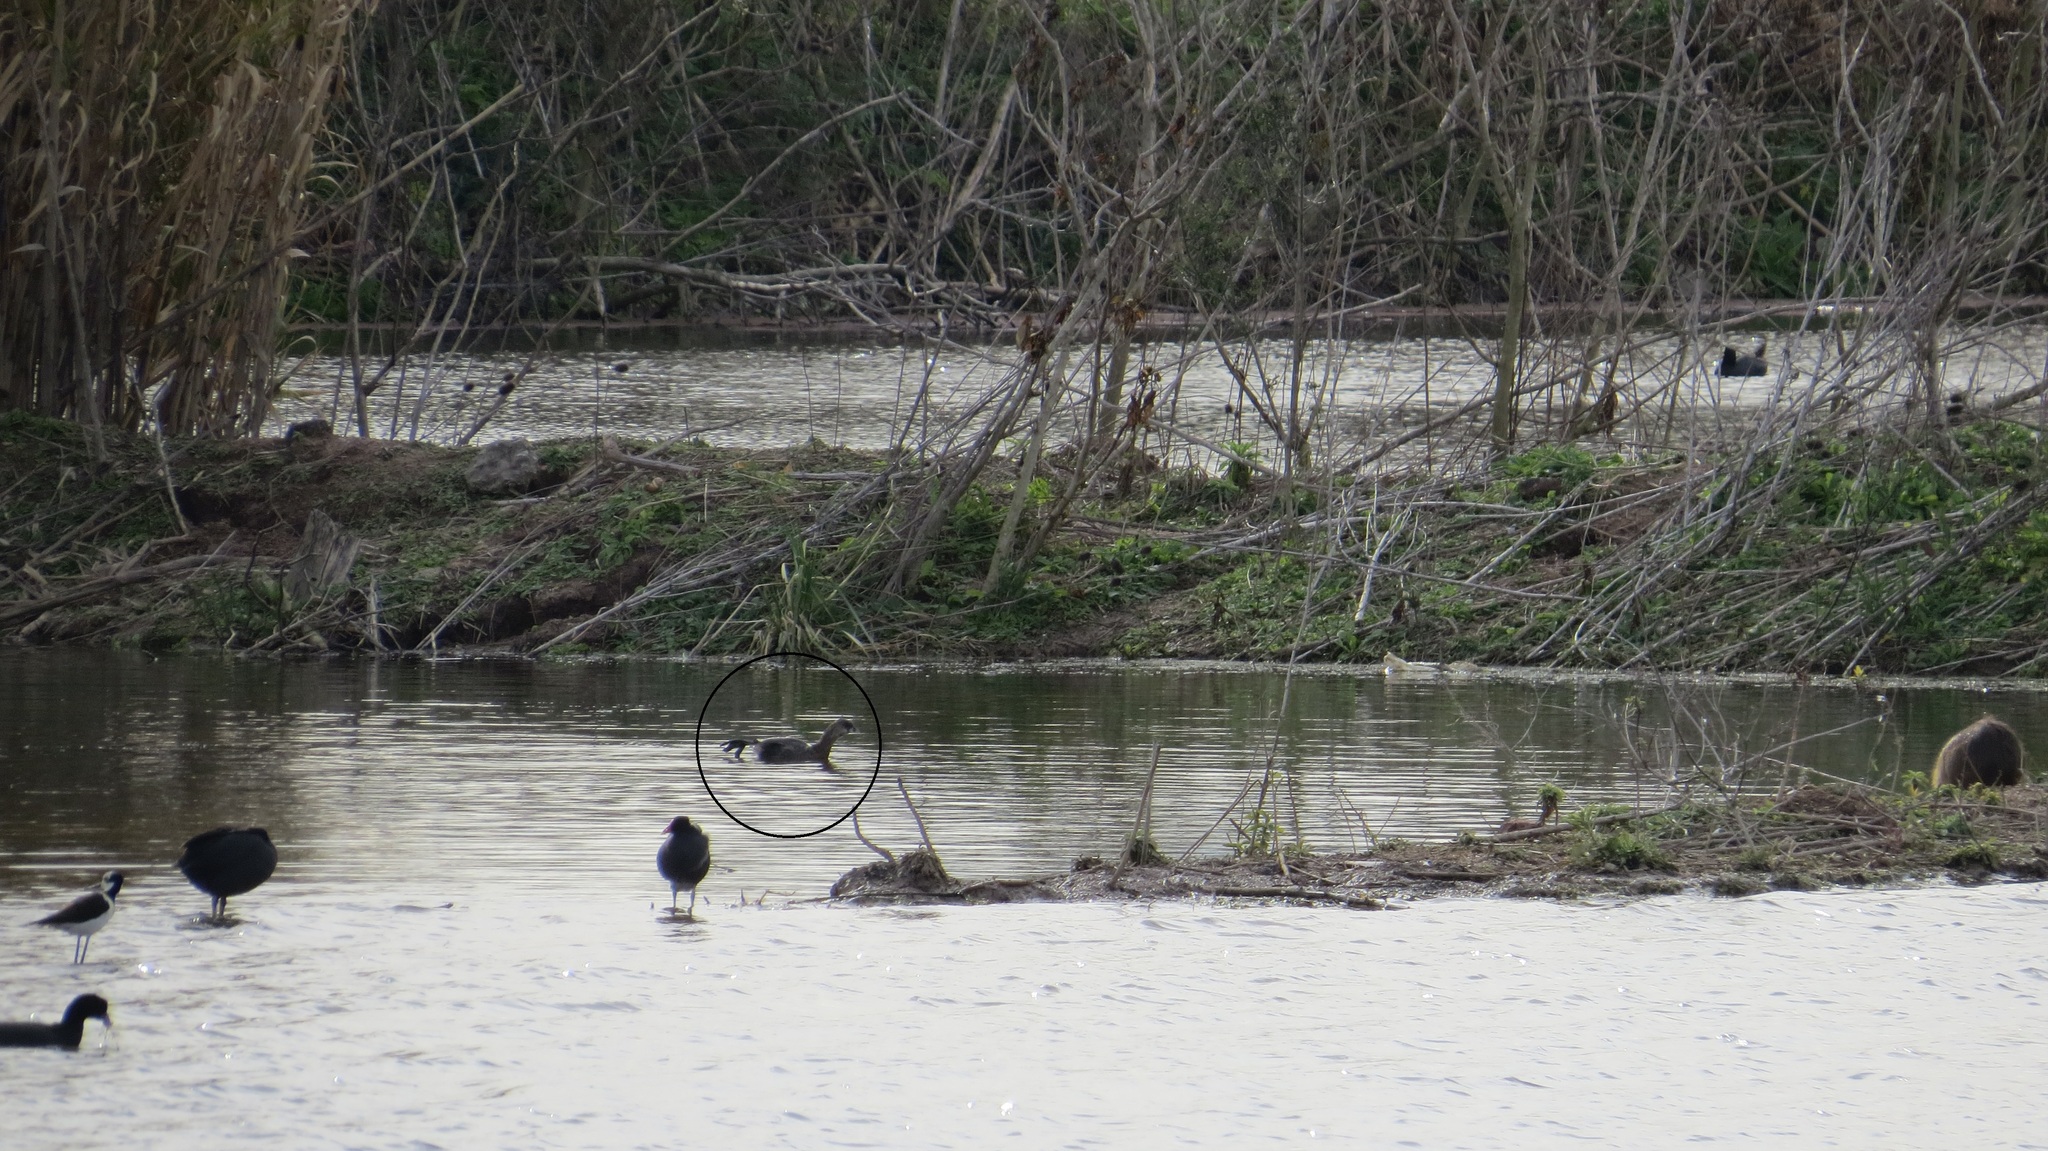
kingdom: Animalia
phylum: Chordata
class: Aves
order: Podicipediformes
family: Podicipedidae
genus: Podilymbus
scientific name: Podilymbus podiceps
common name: Pied-billed grebe
